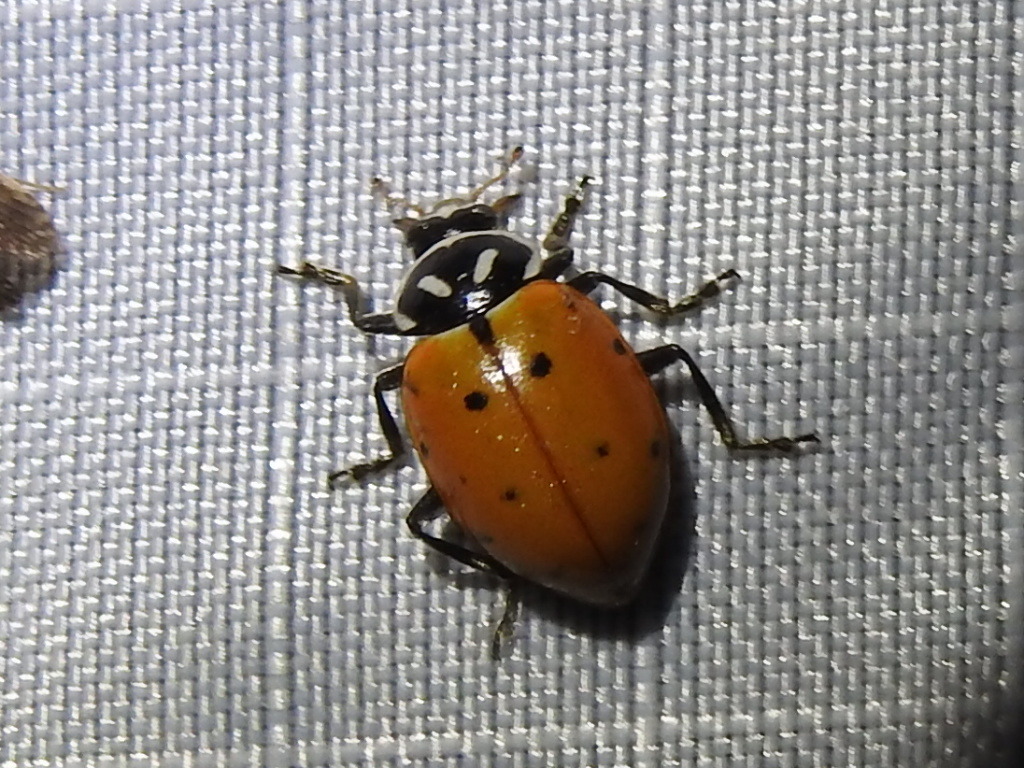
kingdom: Animalia
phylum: Arthropoda
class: Insecta
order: Coleoptera
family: Coccinellidae
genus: Hippodamia
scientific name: Hippodamia convergens
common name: Convergent lady beetle
